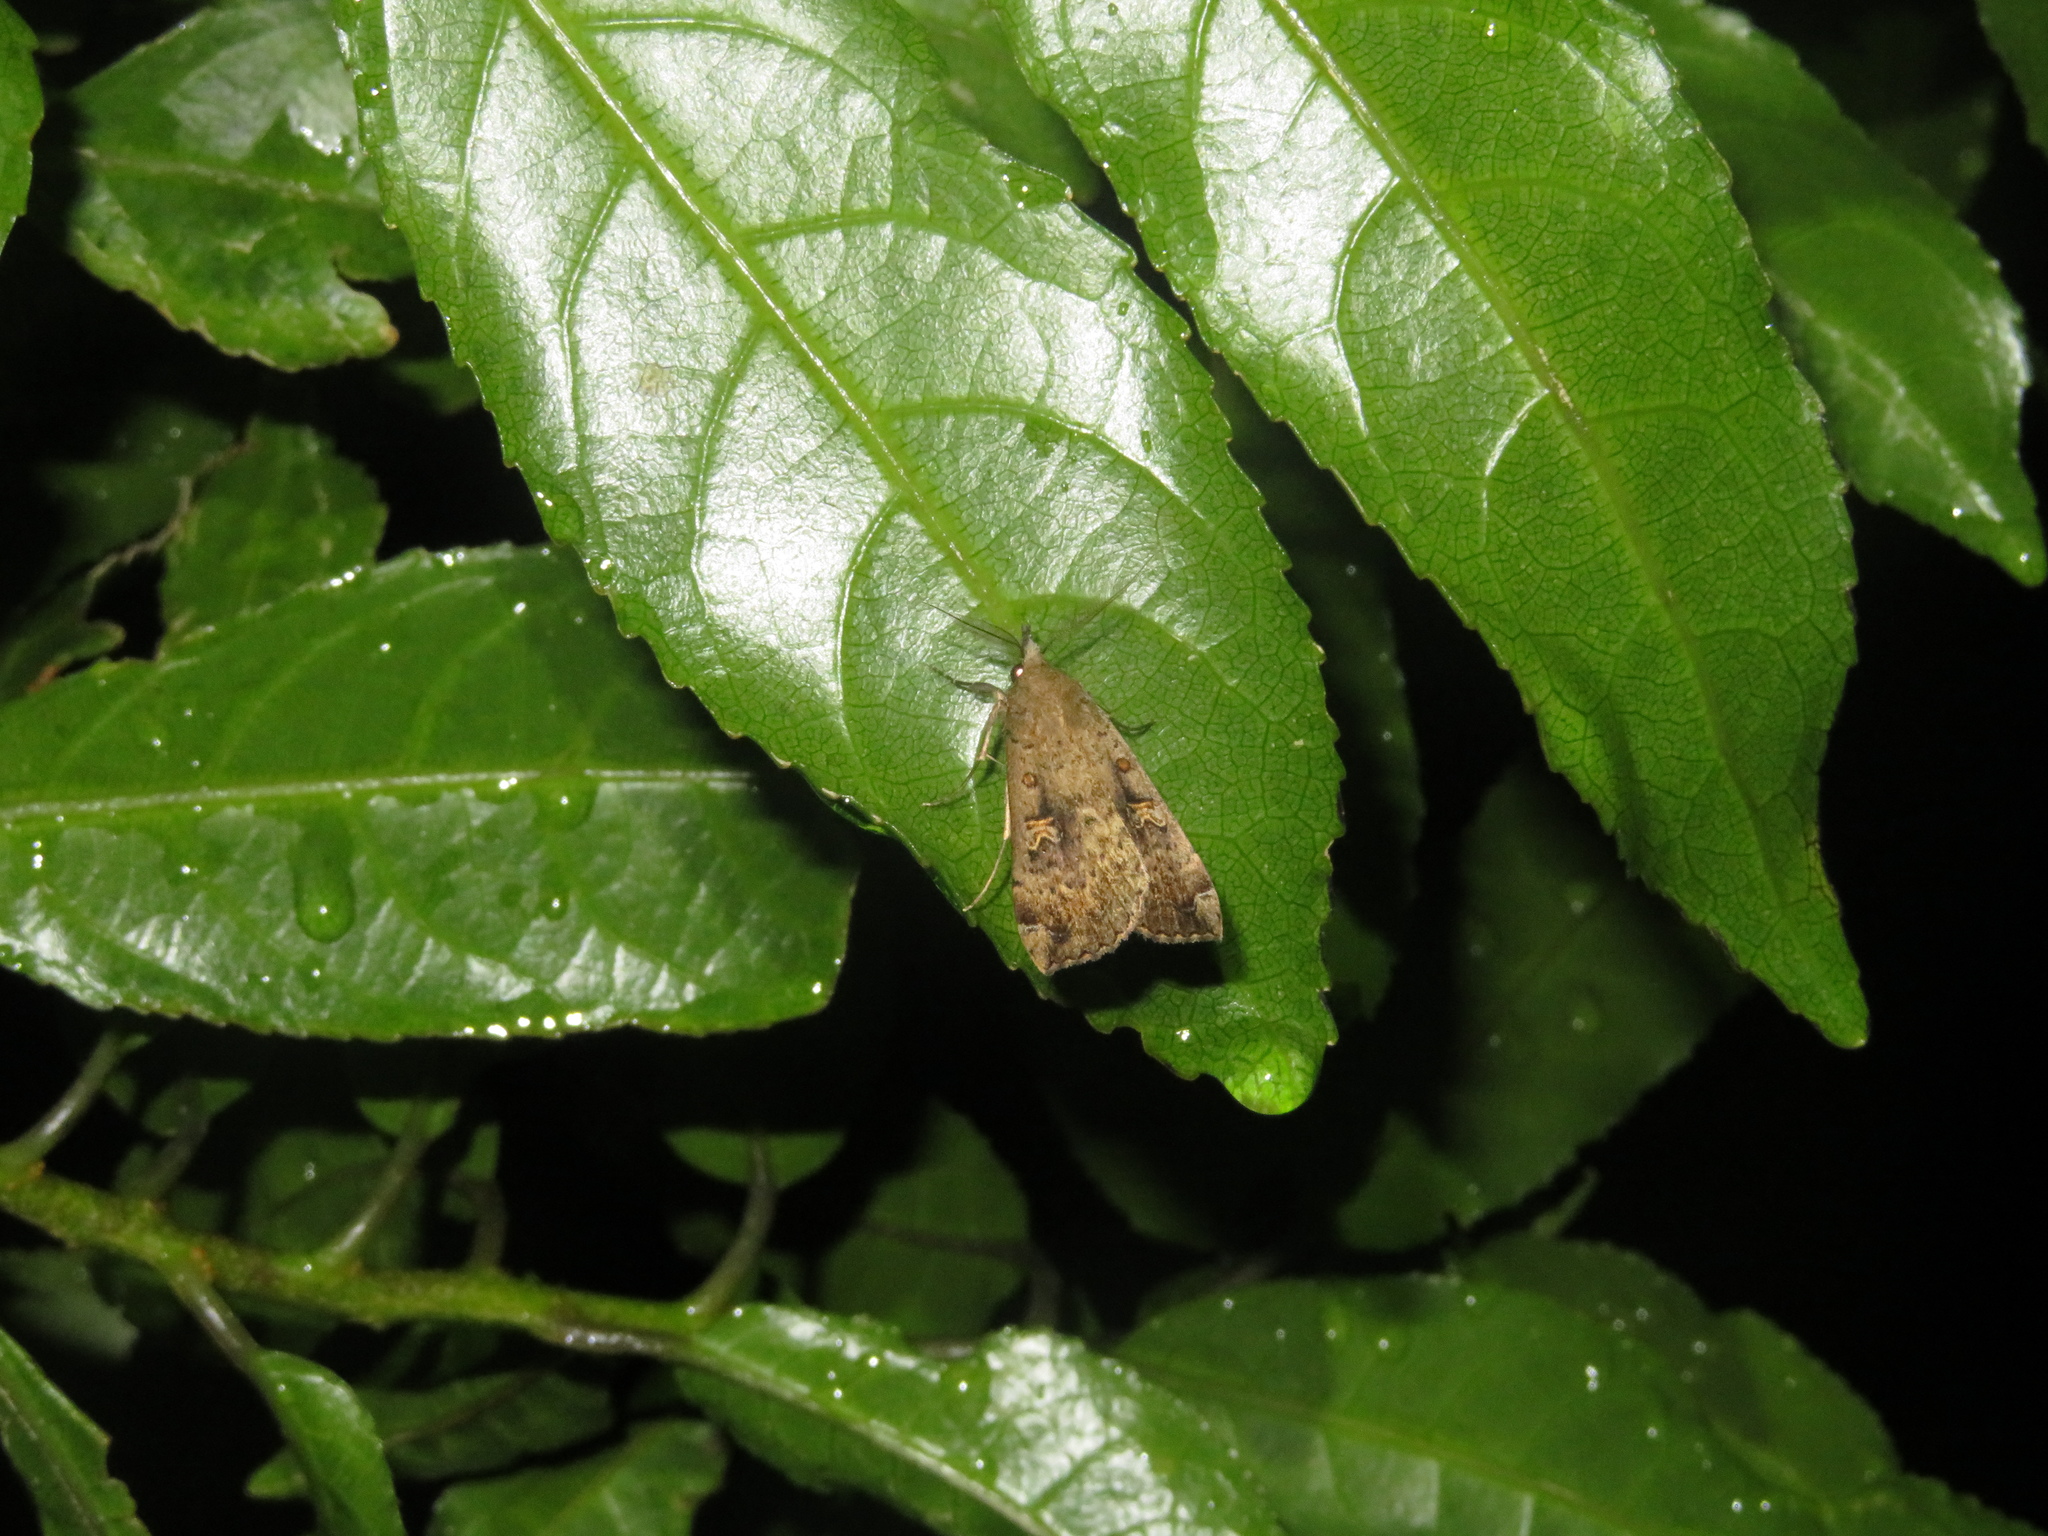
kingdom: Animalia
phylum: Arthropoda
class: Insecta
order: Lepidoptera
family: Erebidae
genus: Rhapsa
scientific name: Rhapsa scotosialis
